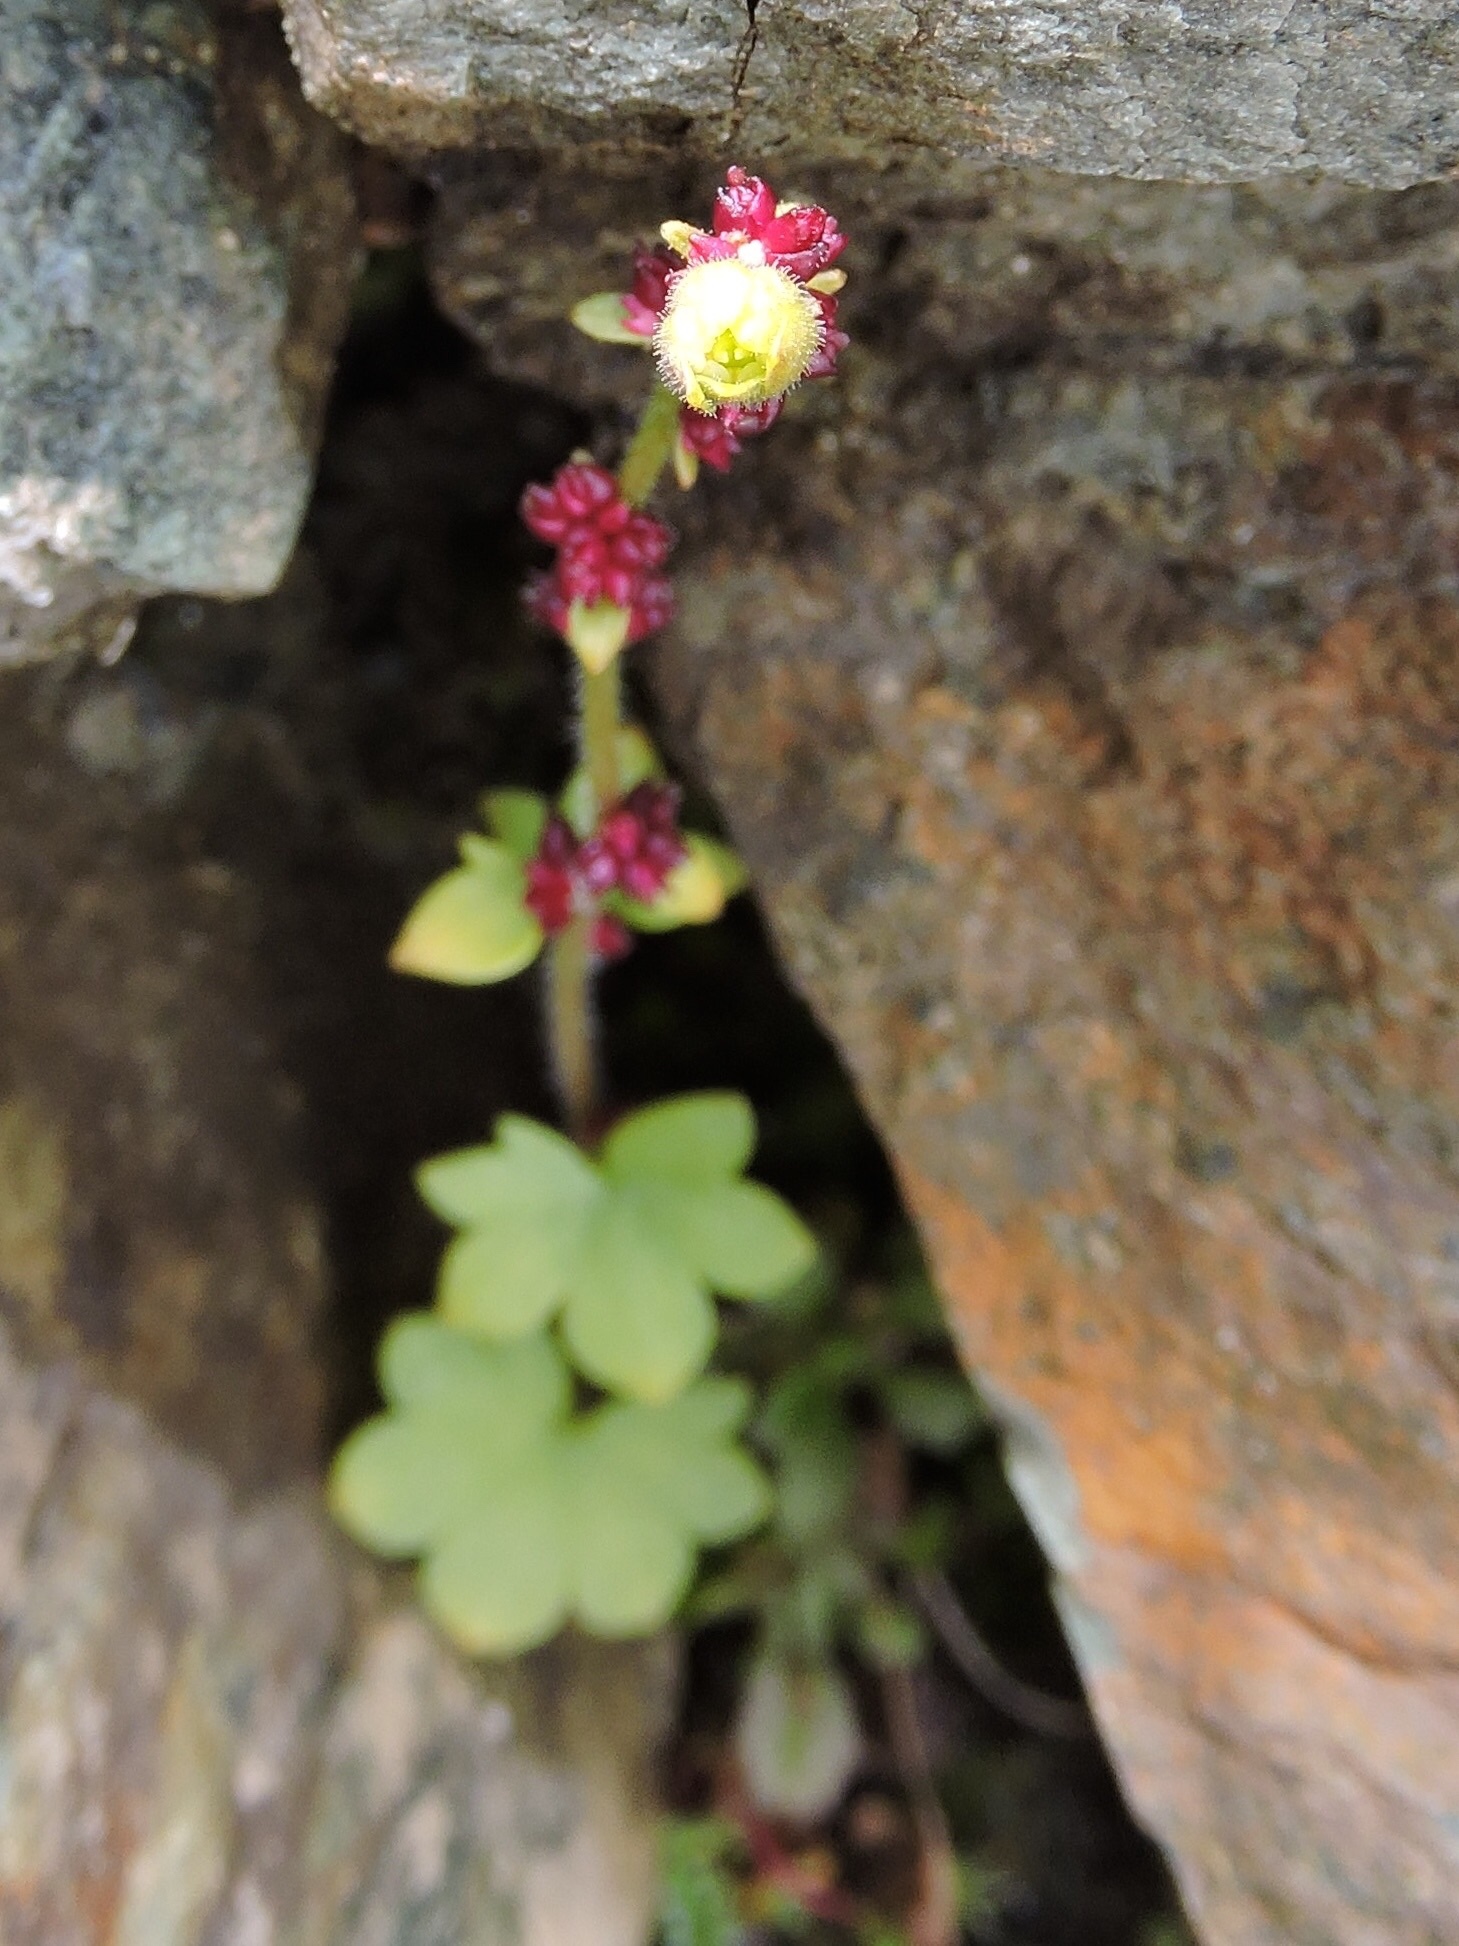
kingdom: Plantae
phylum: Tracheophyta
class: Magnoliopsida
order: Saxifragales
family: Saxifragaceae
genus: Saxifraga
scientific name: Saxifraga cernua
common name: Drooping saxifrage
